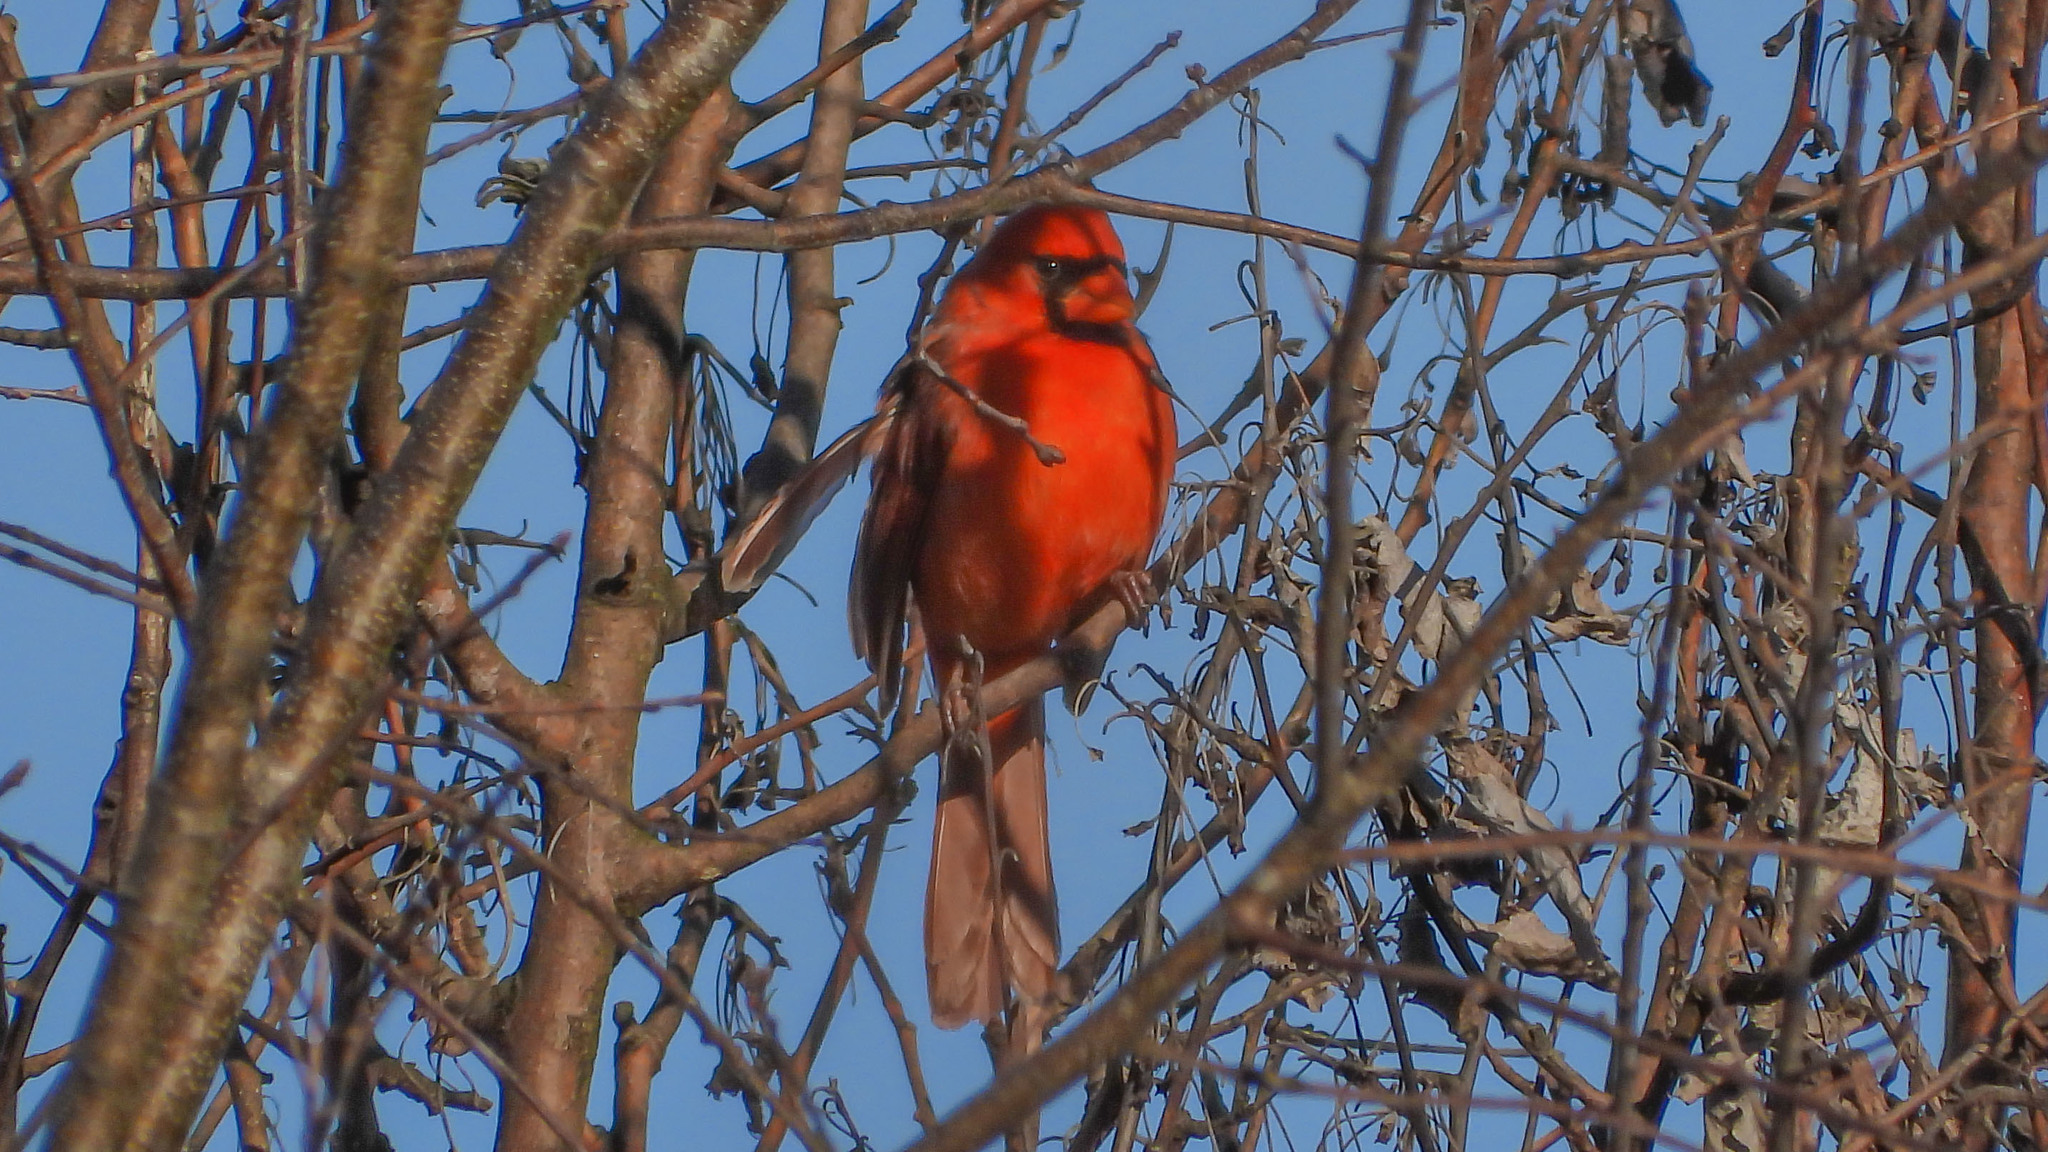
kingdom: Animalia
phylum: Chordata
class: Aves
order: Passeriformes
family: Cardinalidae
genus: Cardinalis
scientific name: Cardinalis cardinalis
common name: Northern cardinal
